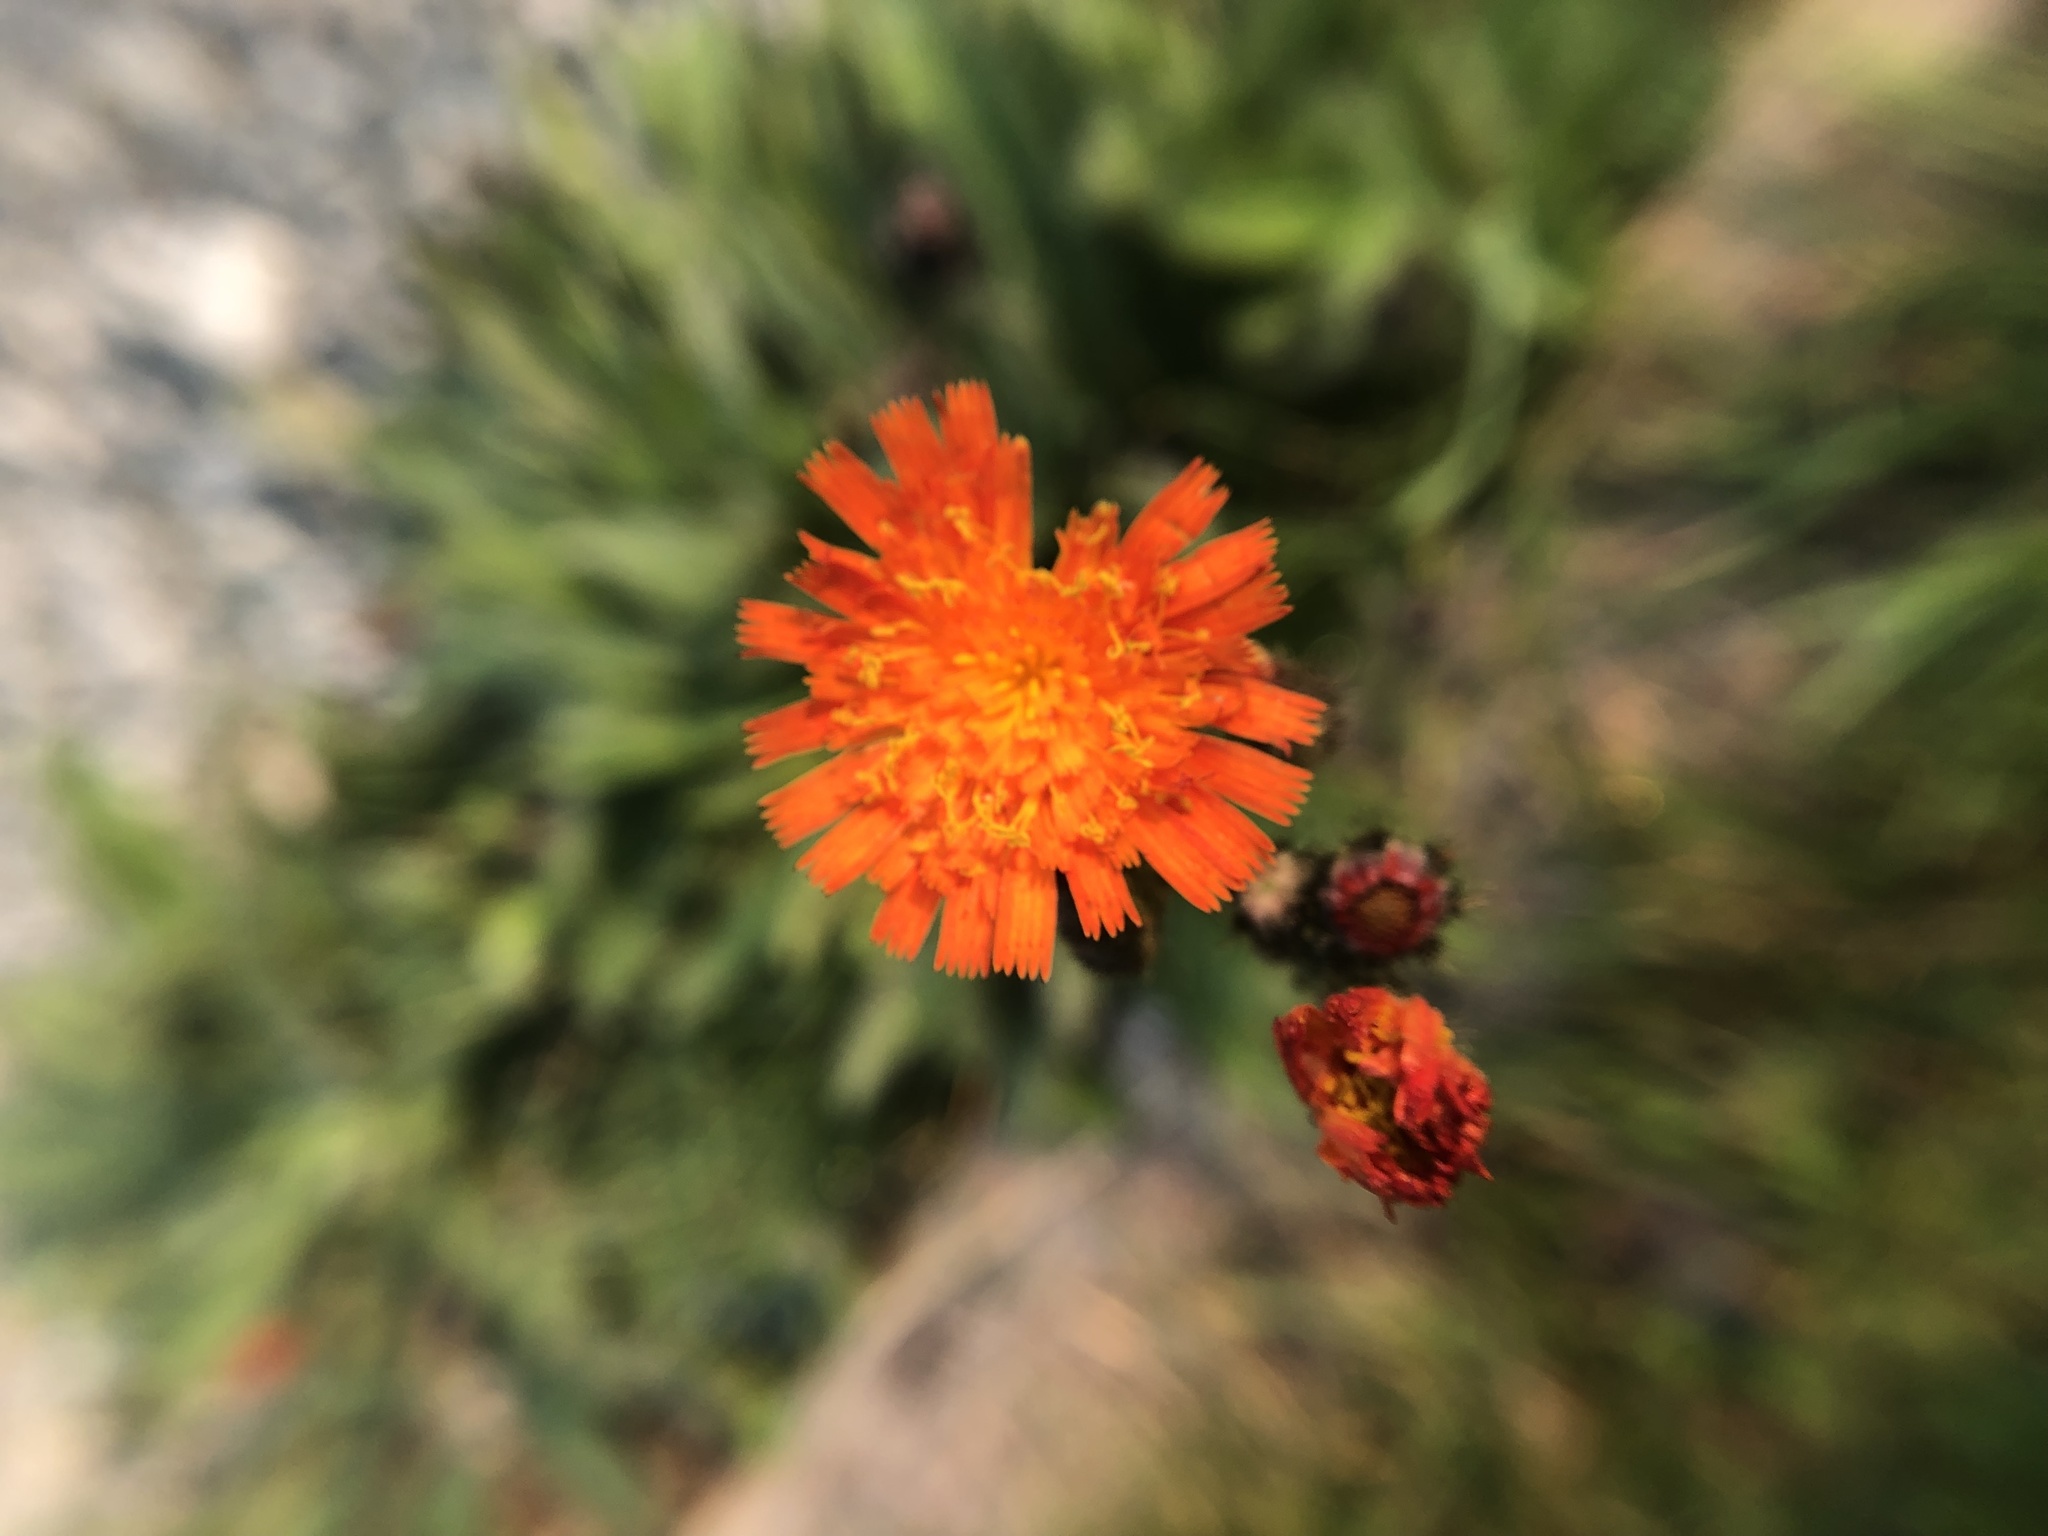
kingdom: Plantae
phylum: Tracheophyta
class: Magnoliopsida
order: Asterales
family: Asteraceae
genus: Pilosella
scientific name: Pilosella aurantiaca
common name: Fox-and-cubs
